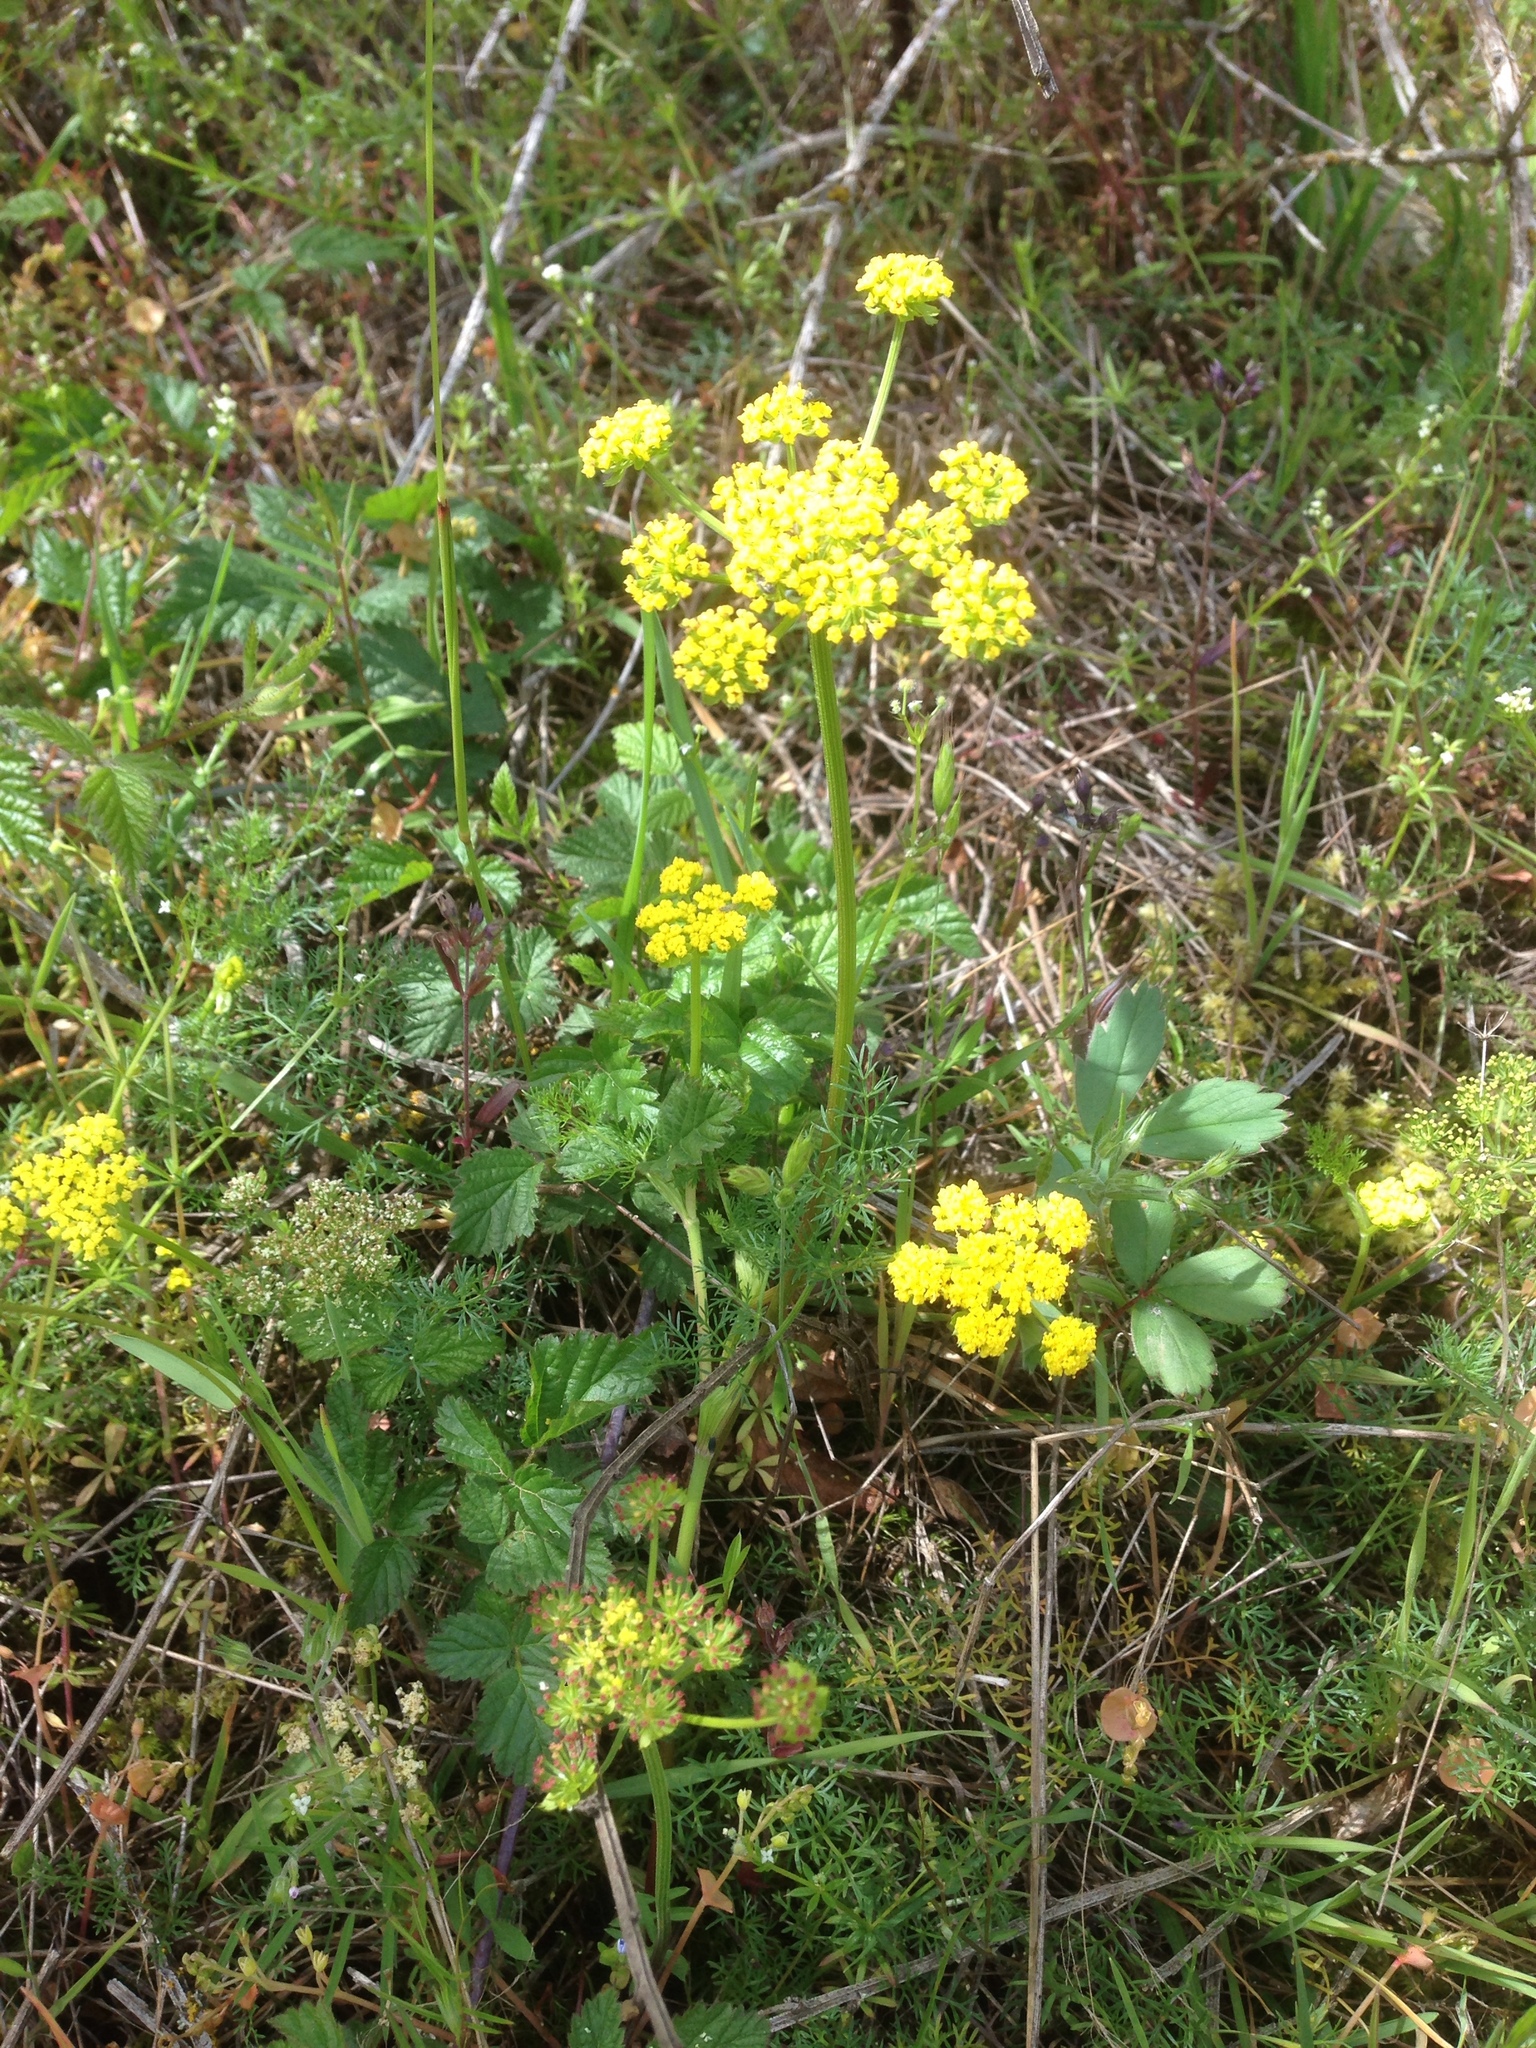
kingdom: Plantae
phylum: Tracheophyta
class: Magnoliopsida
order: Apiales
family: Apiaceae
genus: Lomatium
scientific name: Lomatium utriculatum
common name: Fine-leaf desert-parsley
